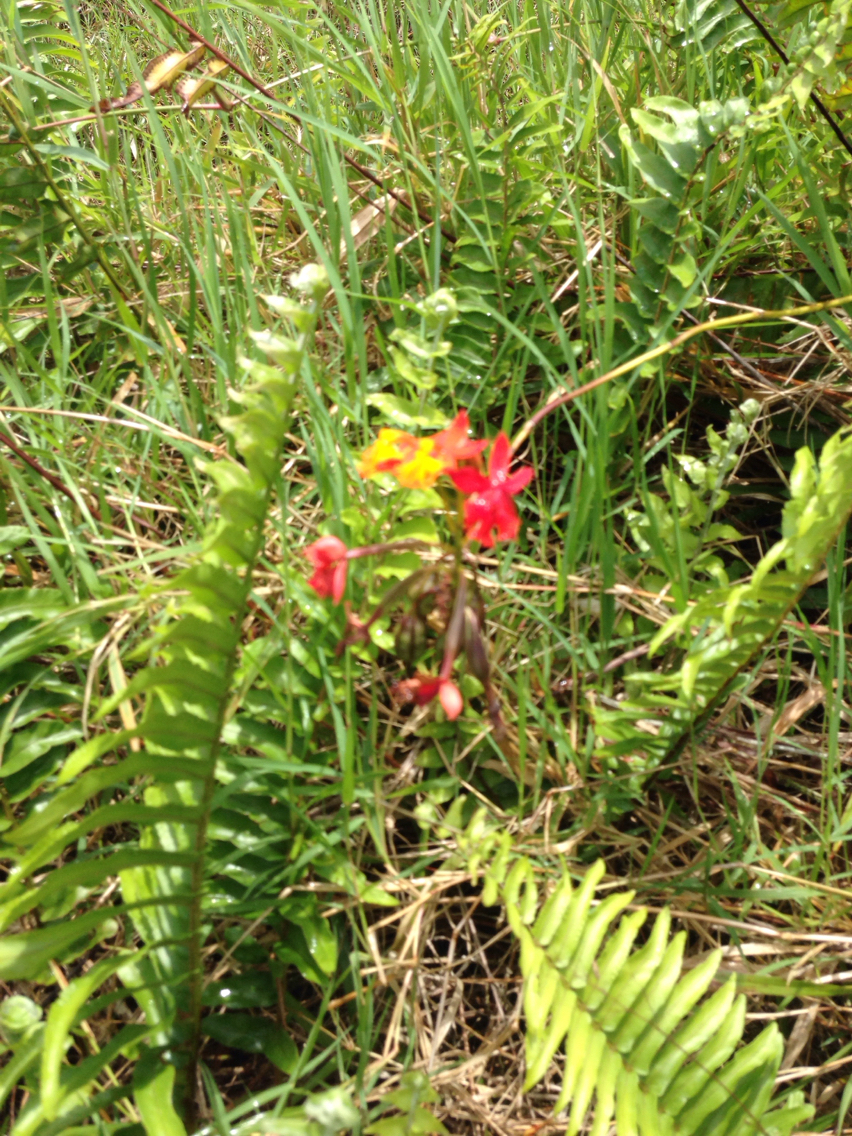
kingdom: Plantae
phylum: Tracheophyta
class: Liliopsida
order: Asparagales
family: Orchidaceae
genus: Epidendrum
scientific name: Epidendrum radicans
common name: Fire star orchid
